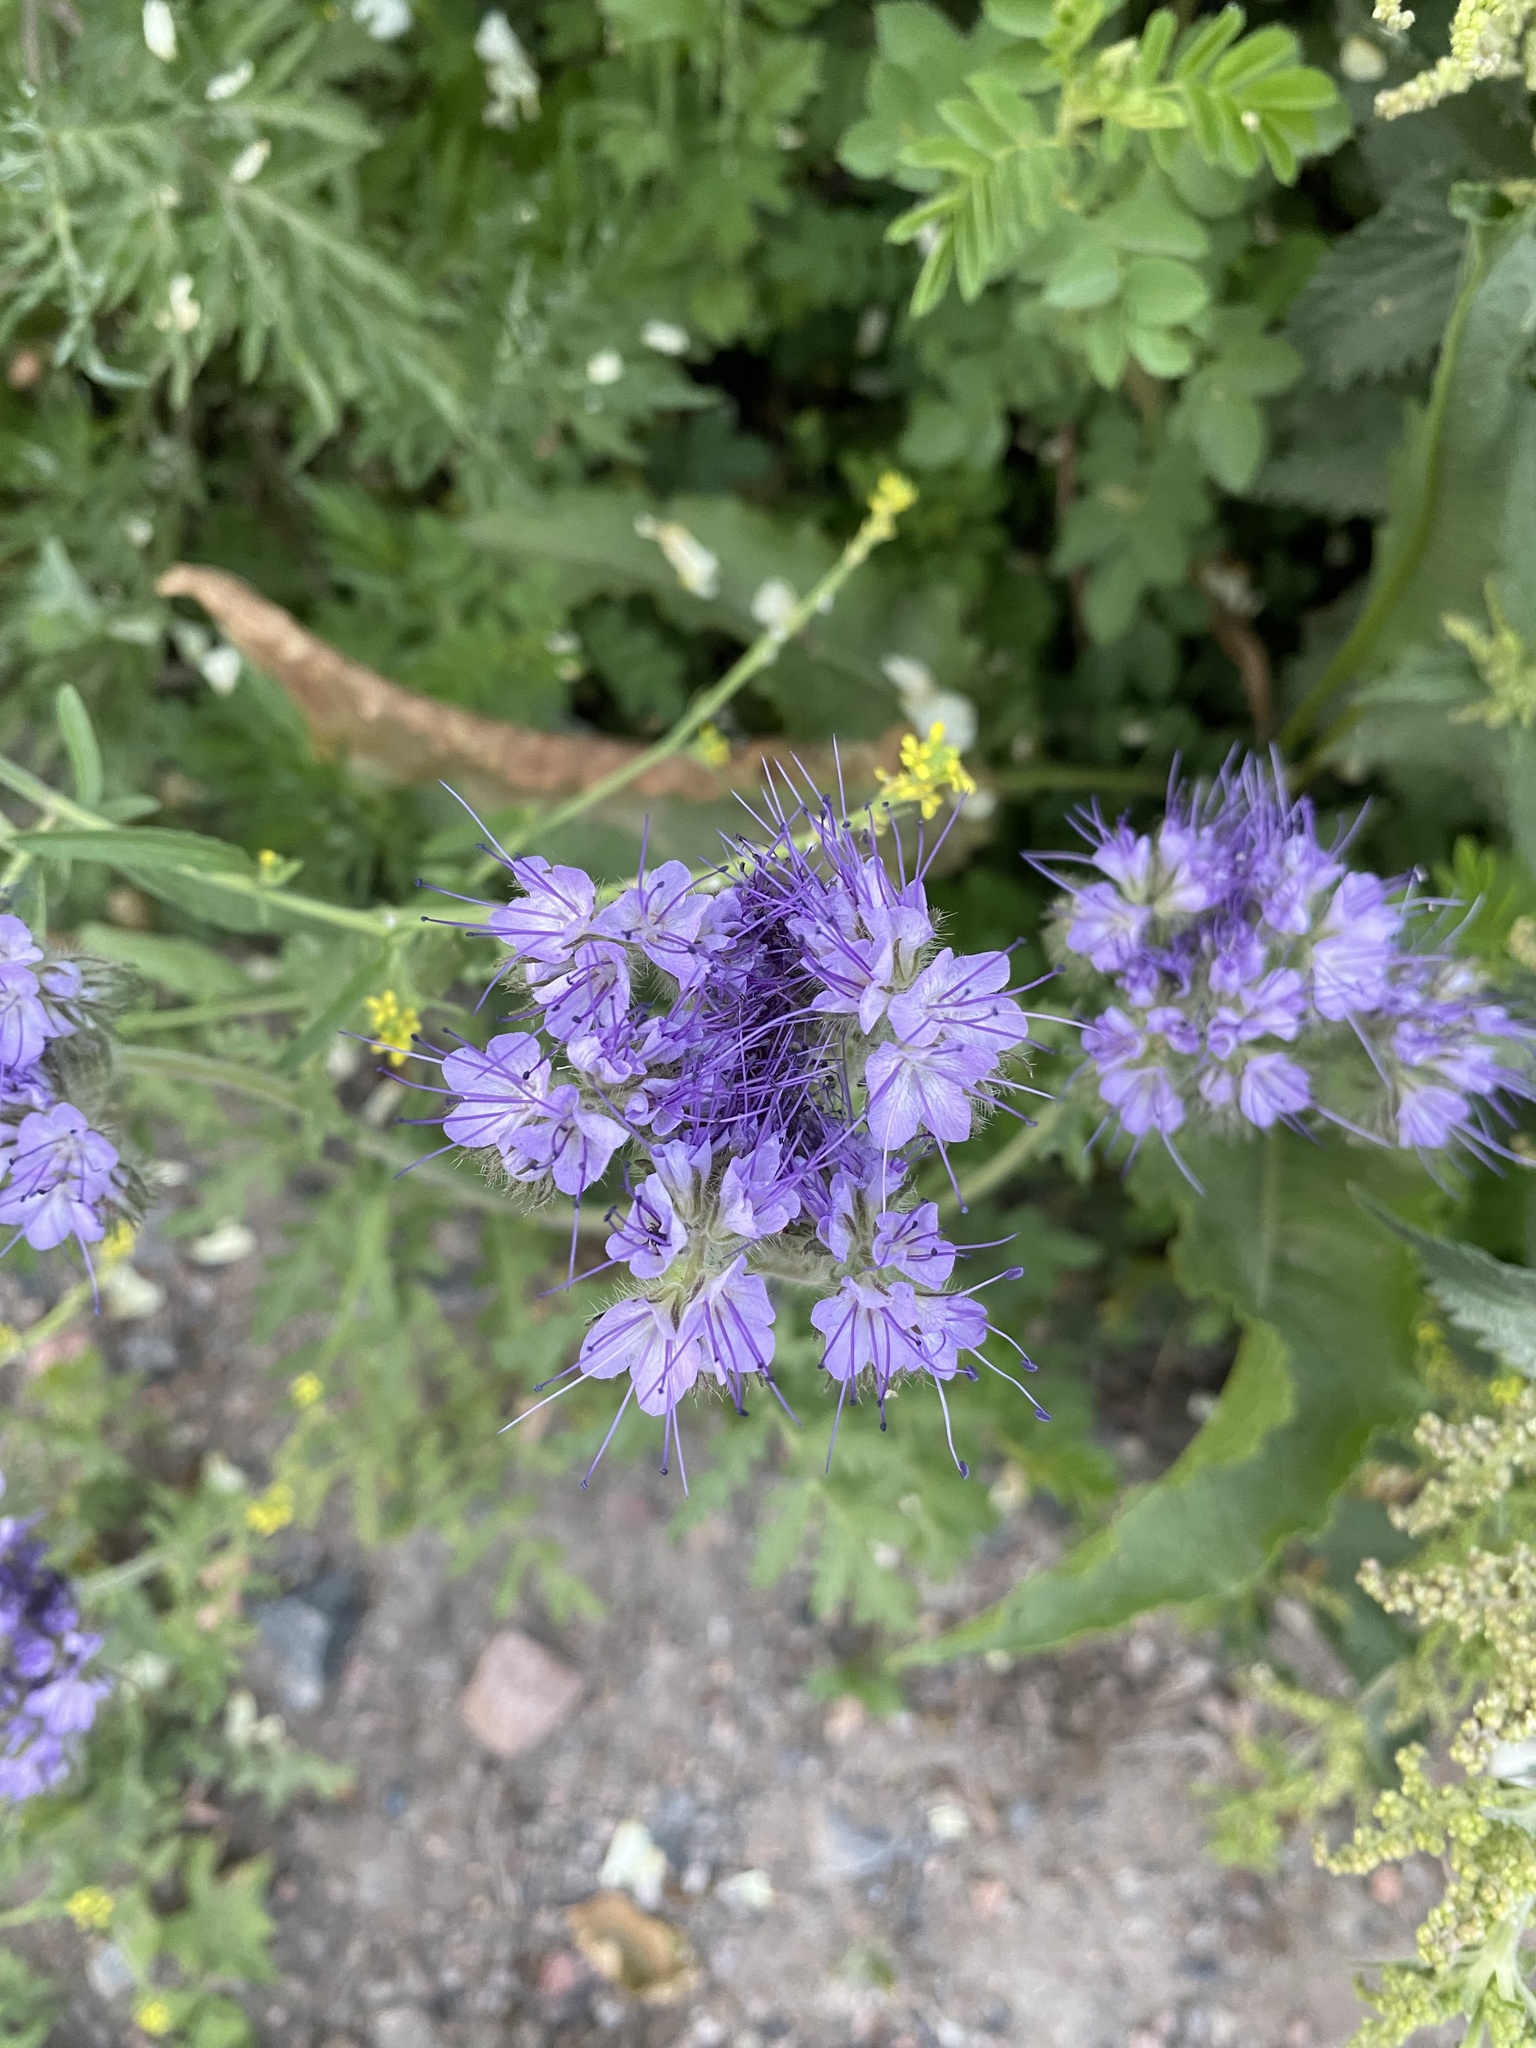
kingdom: Plantae
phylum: Tracheophyta
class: Magnoliopsida
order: Boraginales
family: Hydrophyllaceae
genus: Phacelia
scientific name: Phacelia tanacetifolia
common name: Phacelia
